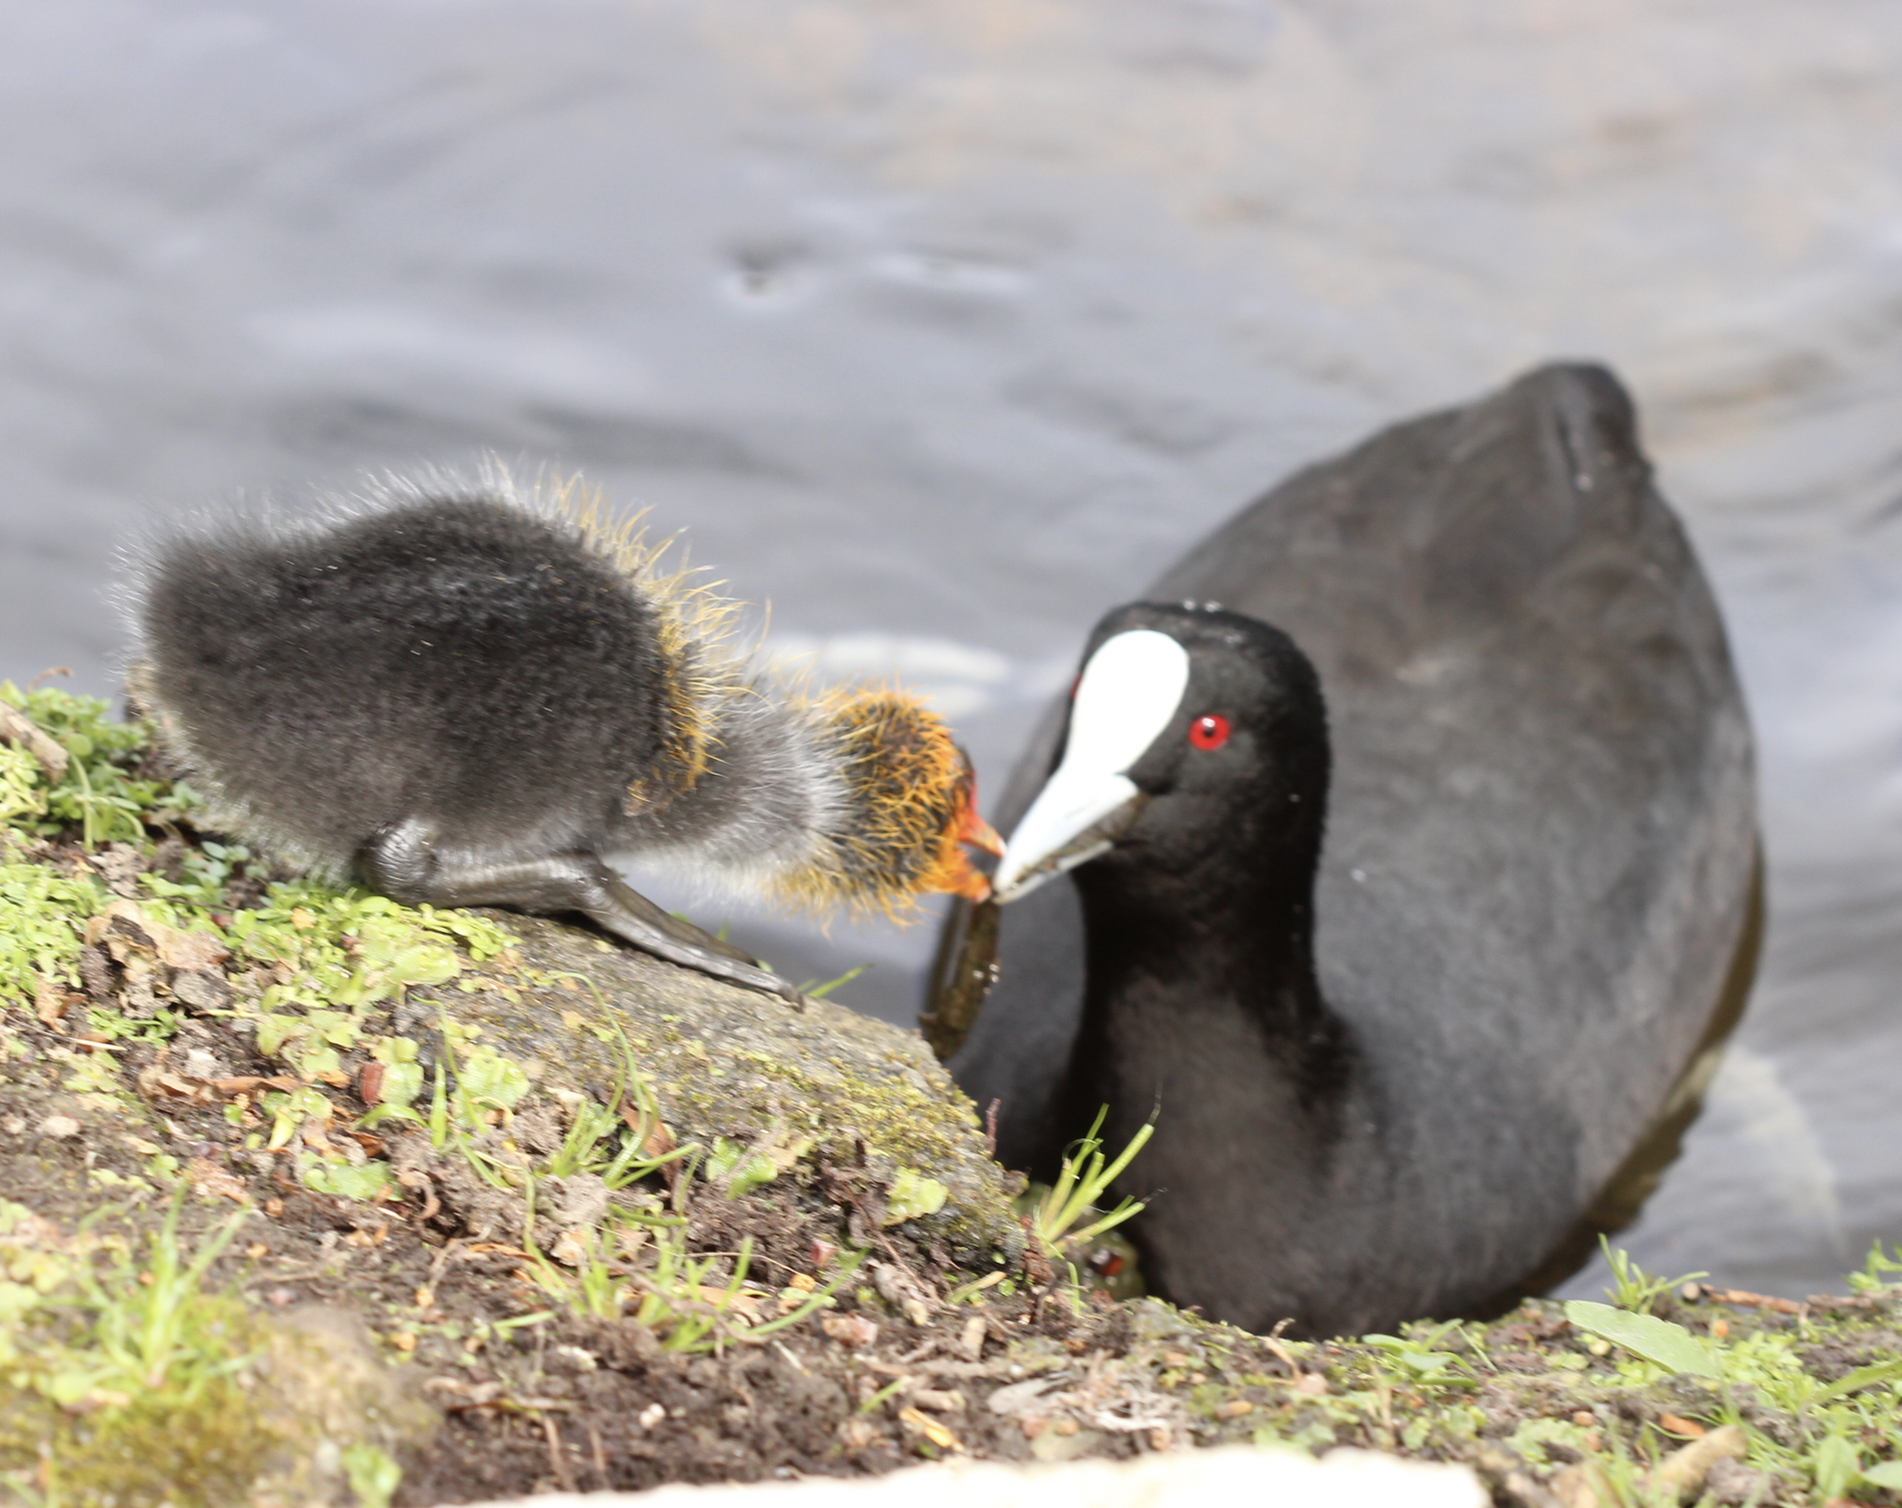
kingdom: Animalia
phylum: Chordata
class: Aves
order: Gruiformes
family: Rallidae
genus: Fulica
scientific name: Fulica atra
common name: Eurasian coot
